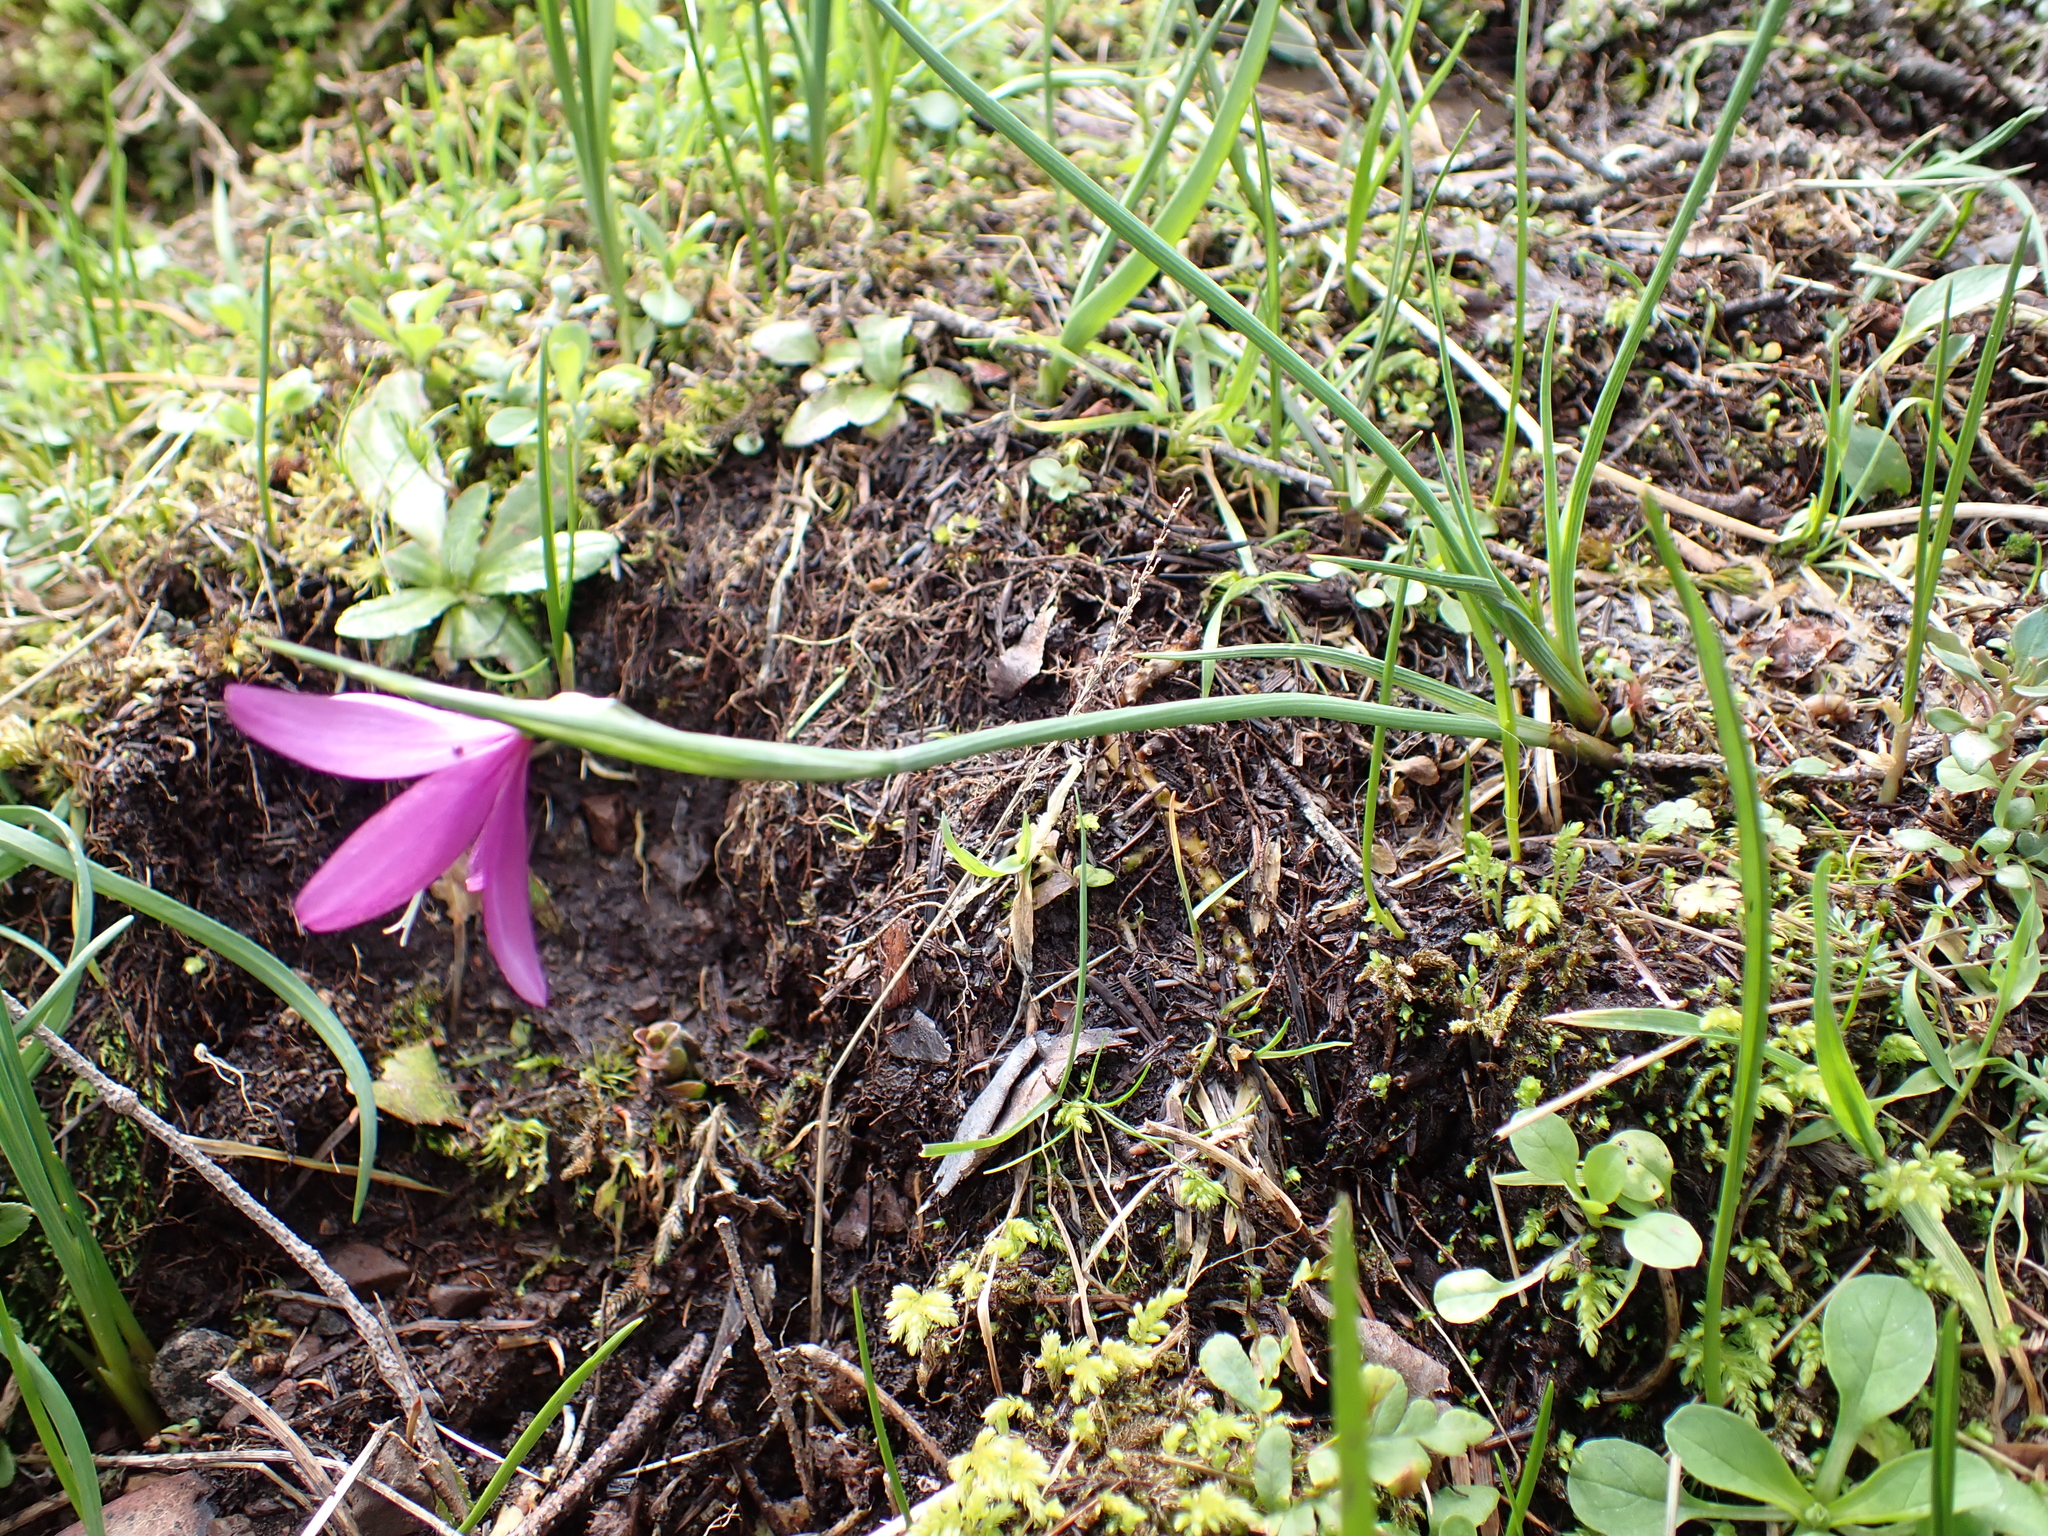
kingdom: Plantae
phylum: Tracheophyta
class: Liliopsida
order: Asparagales
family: Iridaceae
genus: Olsynium
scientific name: Olsynium douglasii
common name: Douglas' grasswidow
